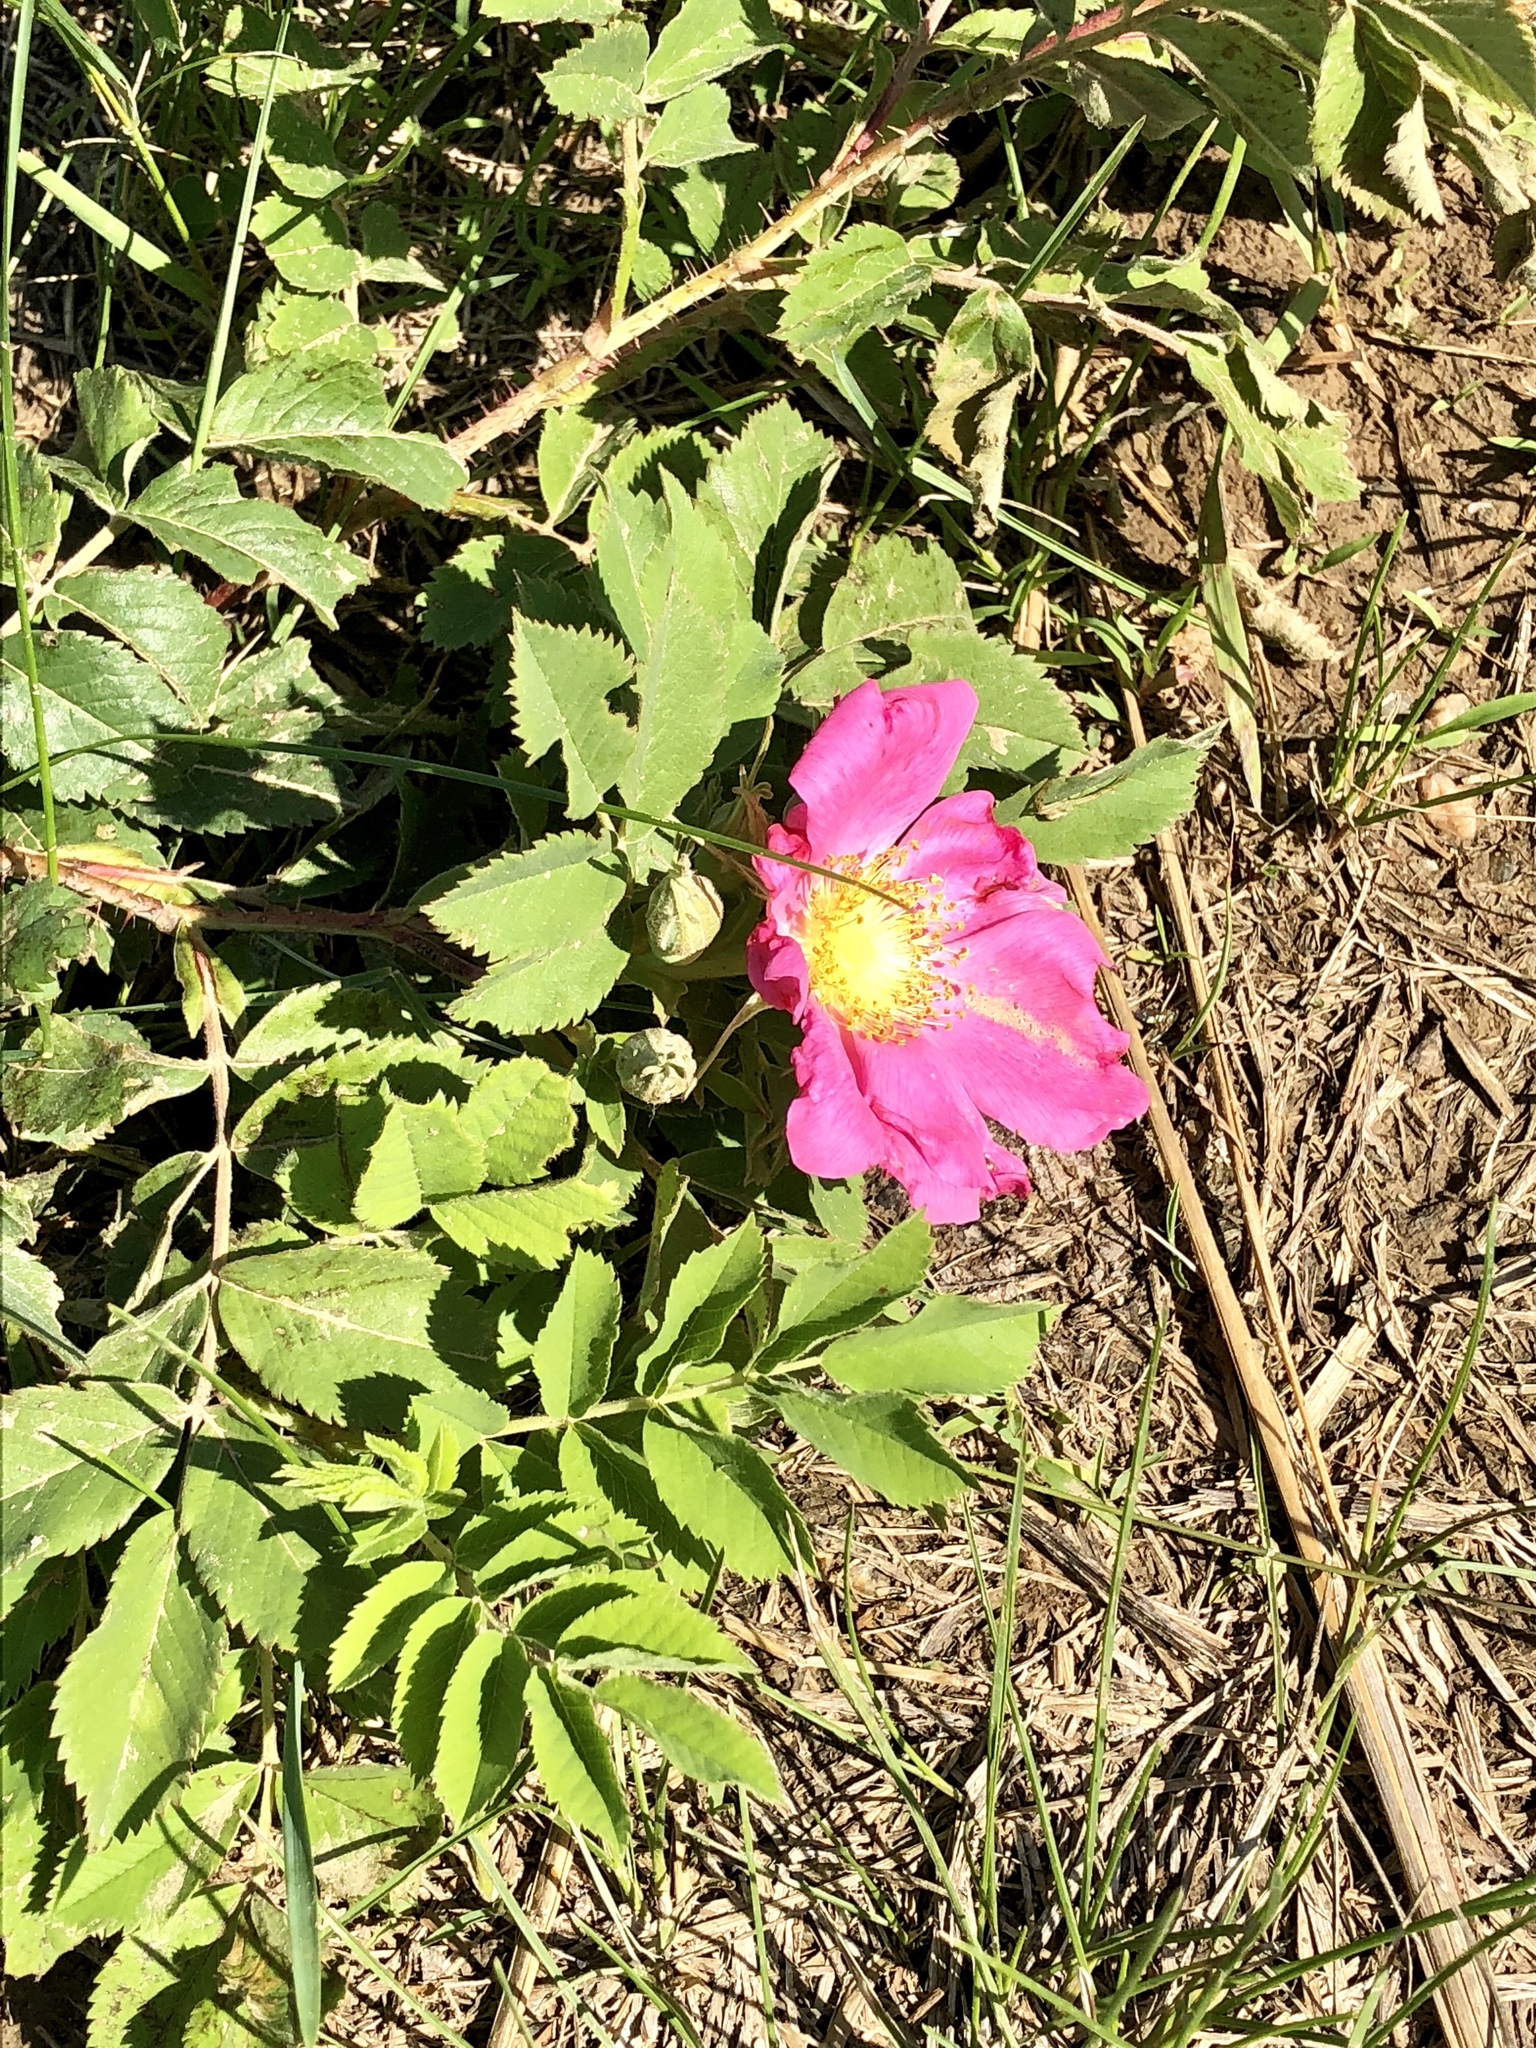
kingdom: Plantae
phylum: Tracheophyta
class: Magnoliopsida
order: Rosales
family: Rosaceae
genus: Rosa
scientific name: Rosa arkansana
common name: Prairie rose
